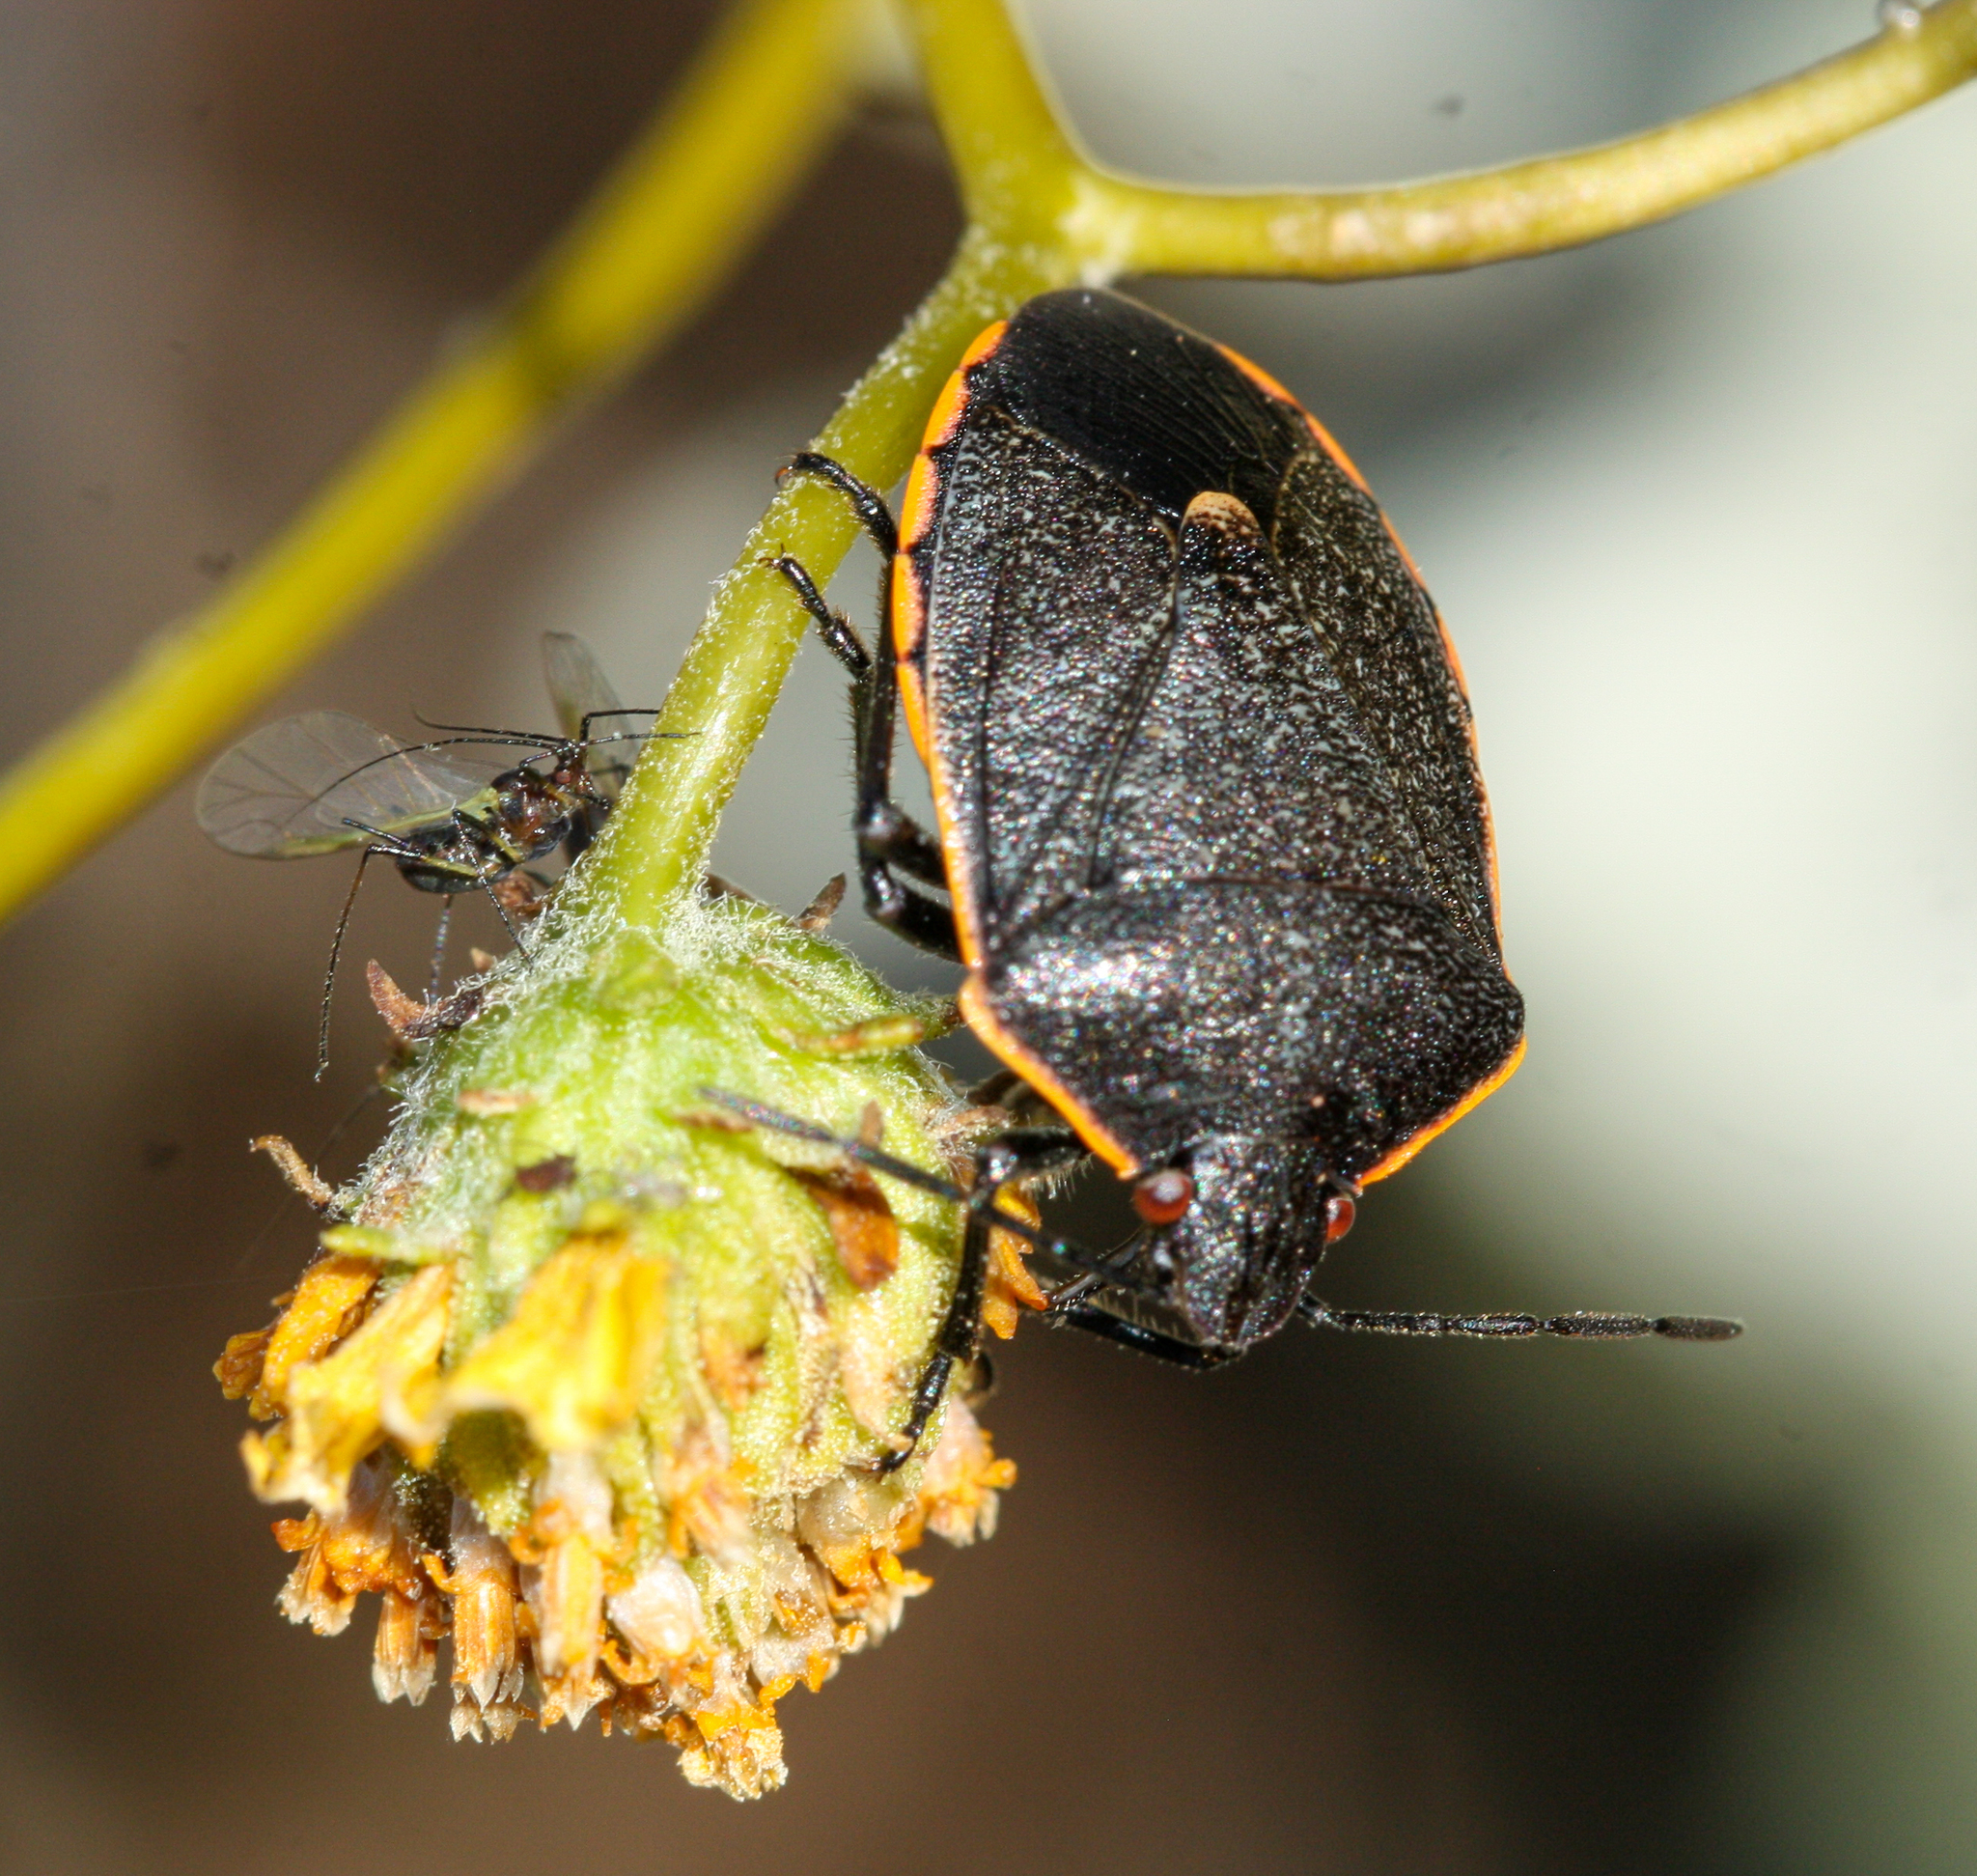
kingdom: Animalia
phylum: Arthropoda
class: Insecta
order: Hemiptera
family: Pentatomidae
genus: Chlorochroa
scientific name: Chlorochroa ligata
